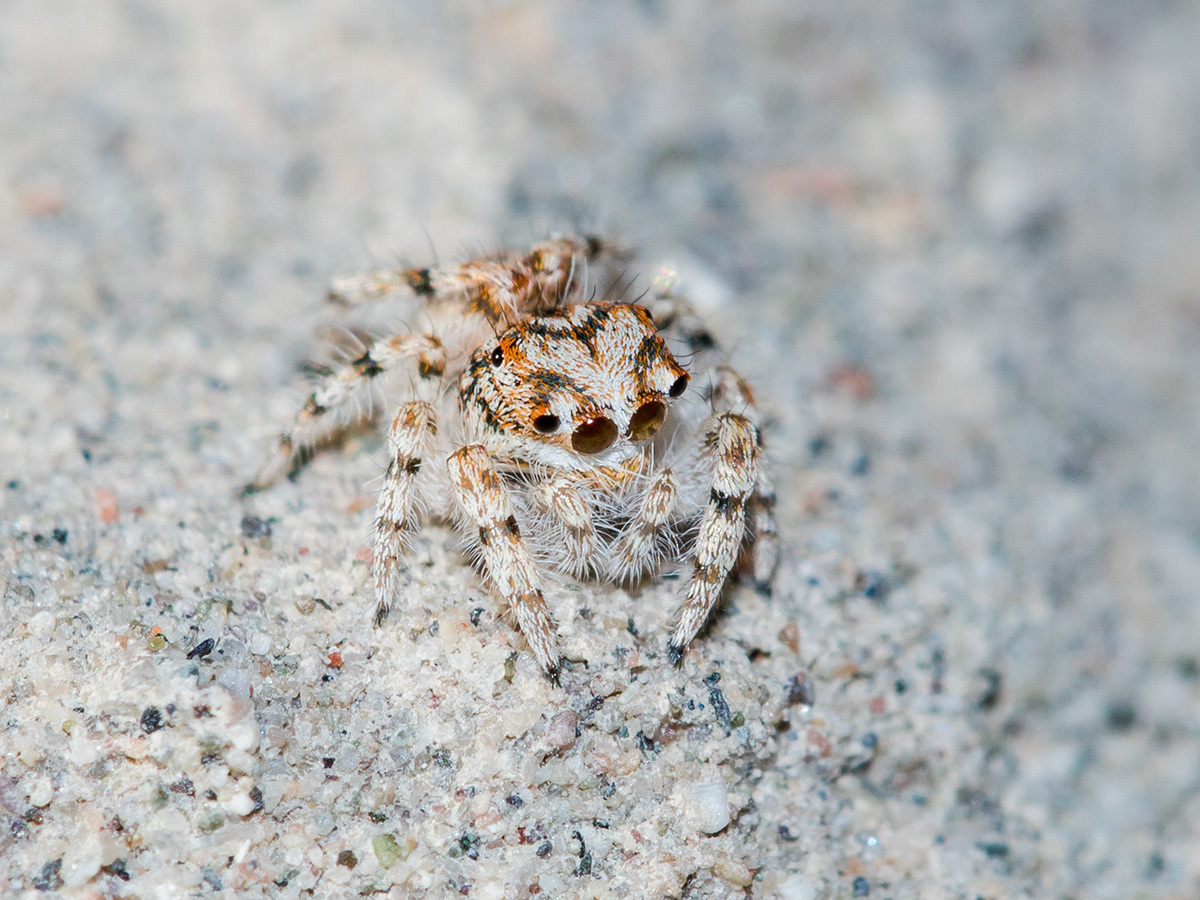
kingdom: Animalia
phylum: Arthropoda
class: Arachnida
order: Araneae
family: Salticidae
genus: Yllenus
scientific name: Yllenus uiguricus
